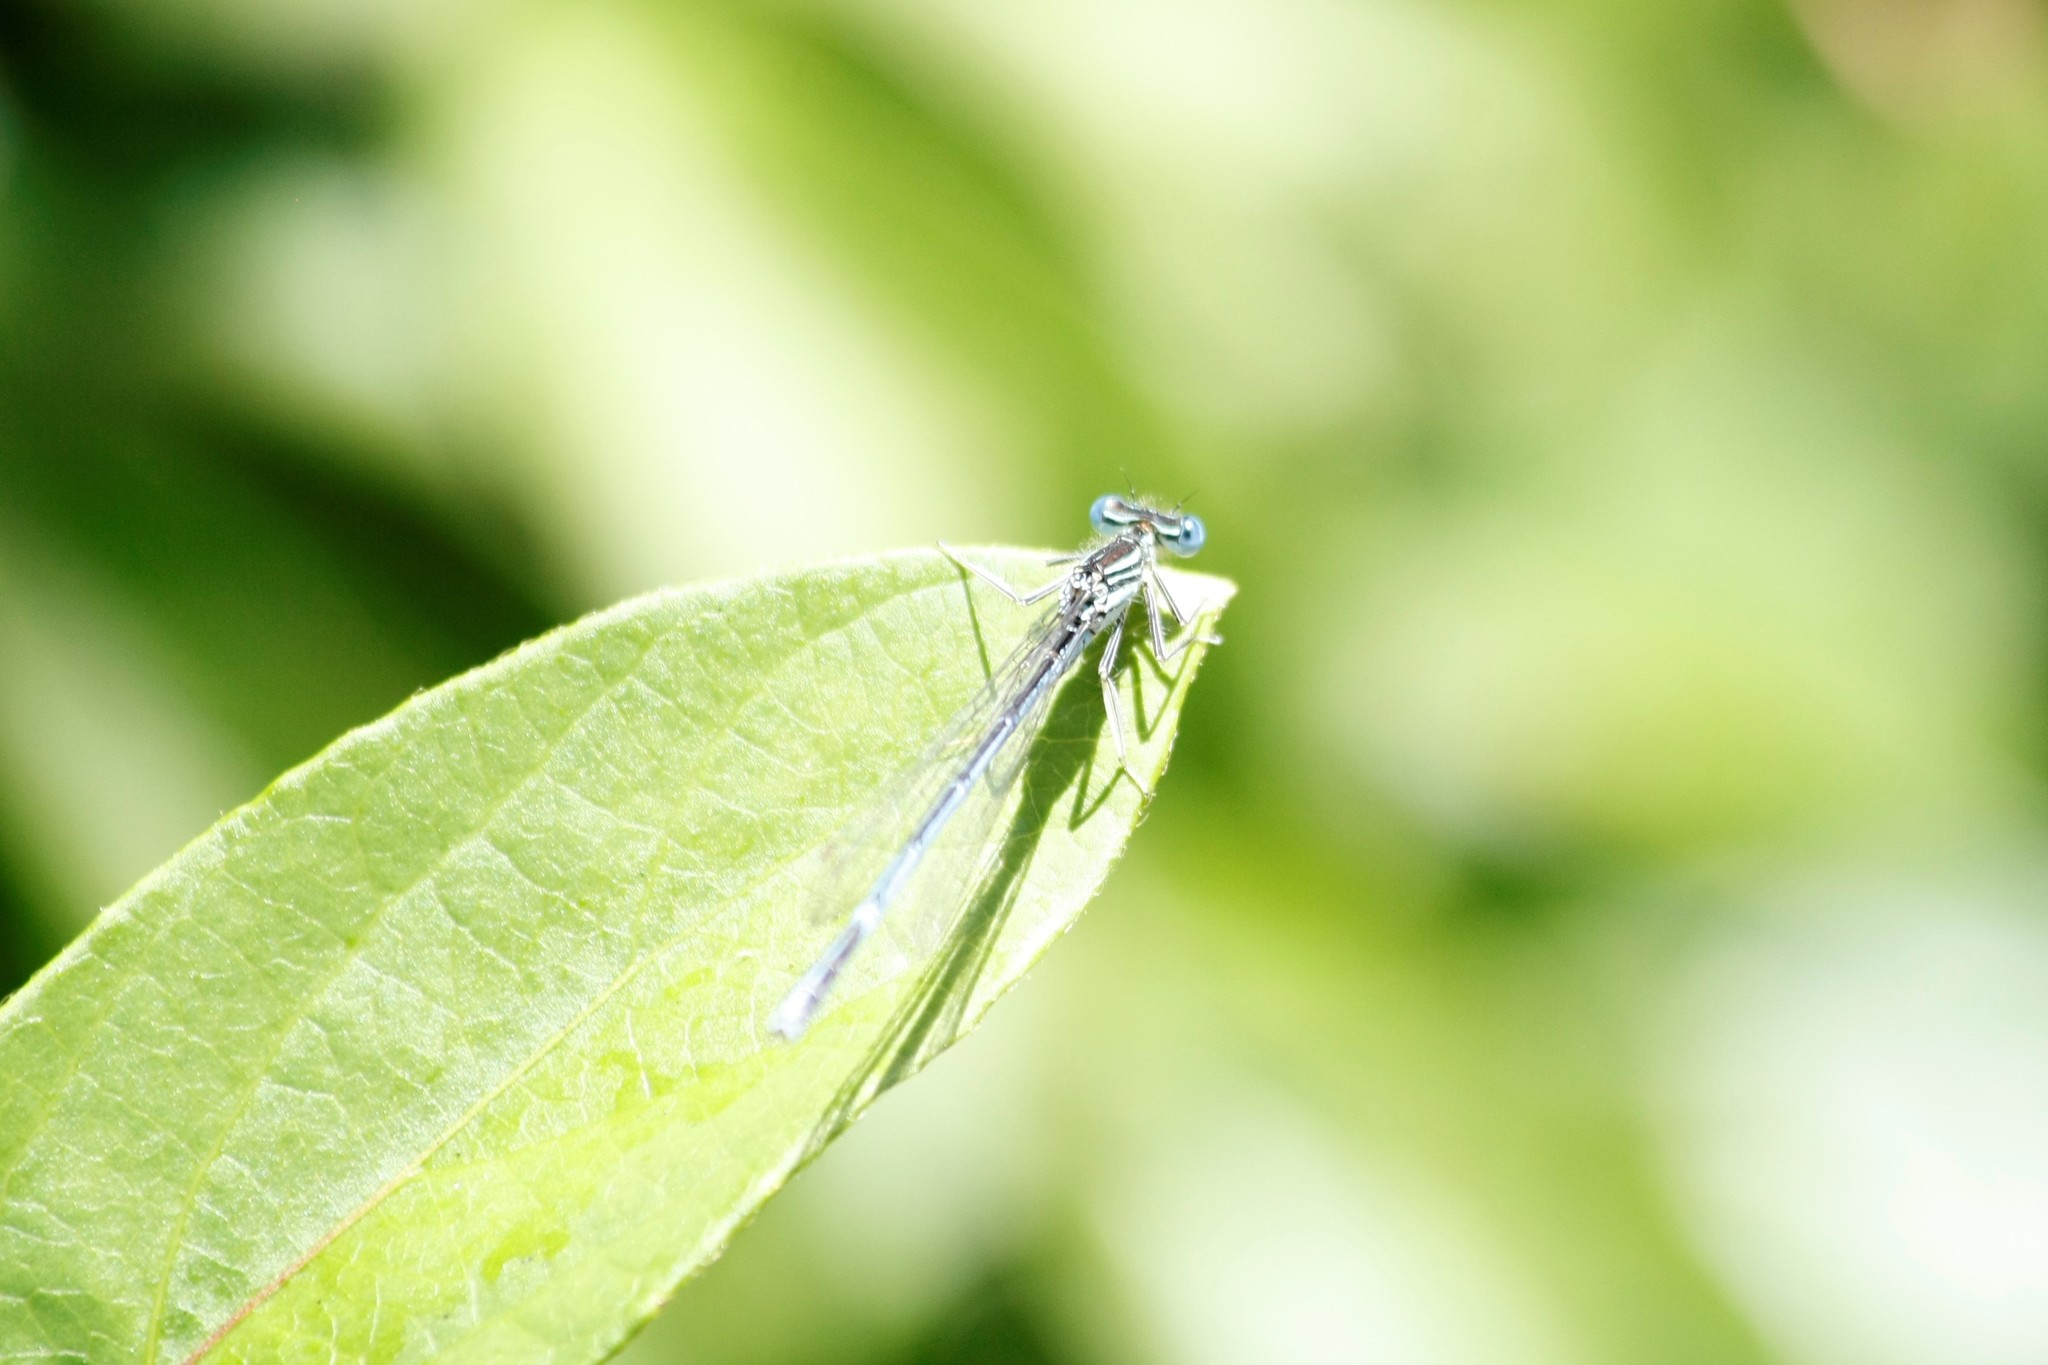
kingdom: Animalia
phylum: Arthropoda
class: Insecta
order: Odonata
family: Platycnemididae
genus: Platycnemis
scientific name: Platycnemis pennipes
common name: White-legged damselfly
